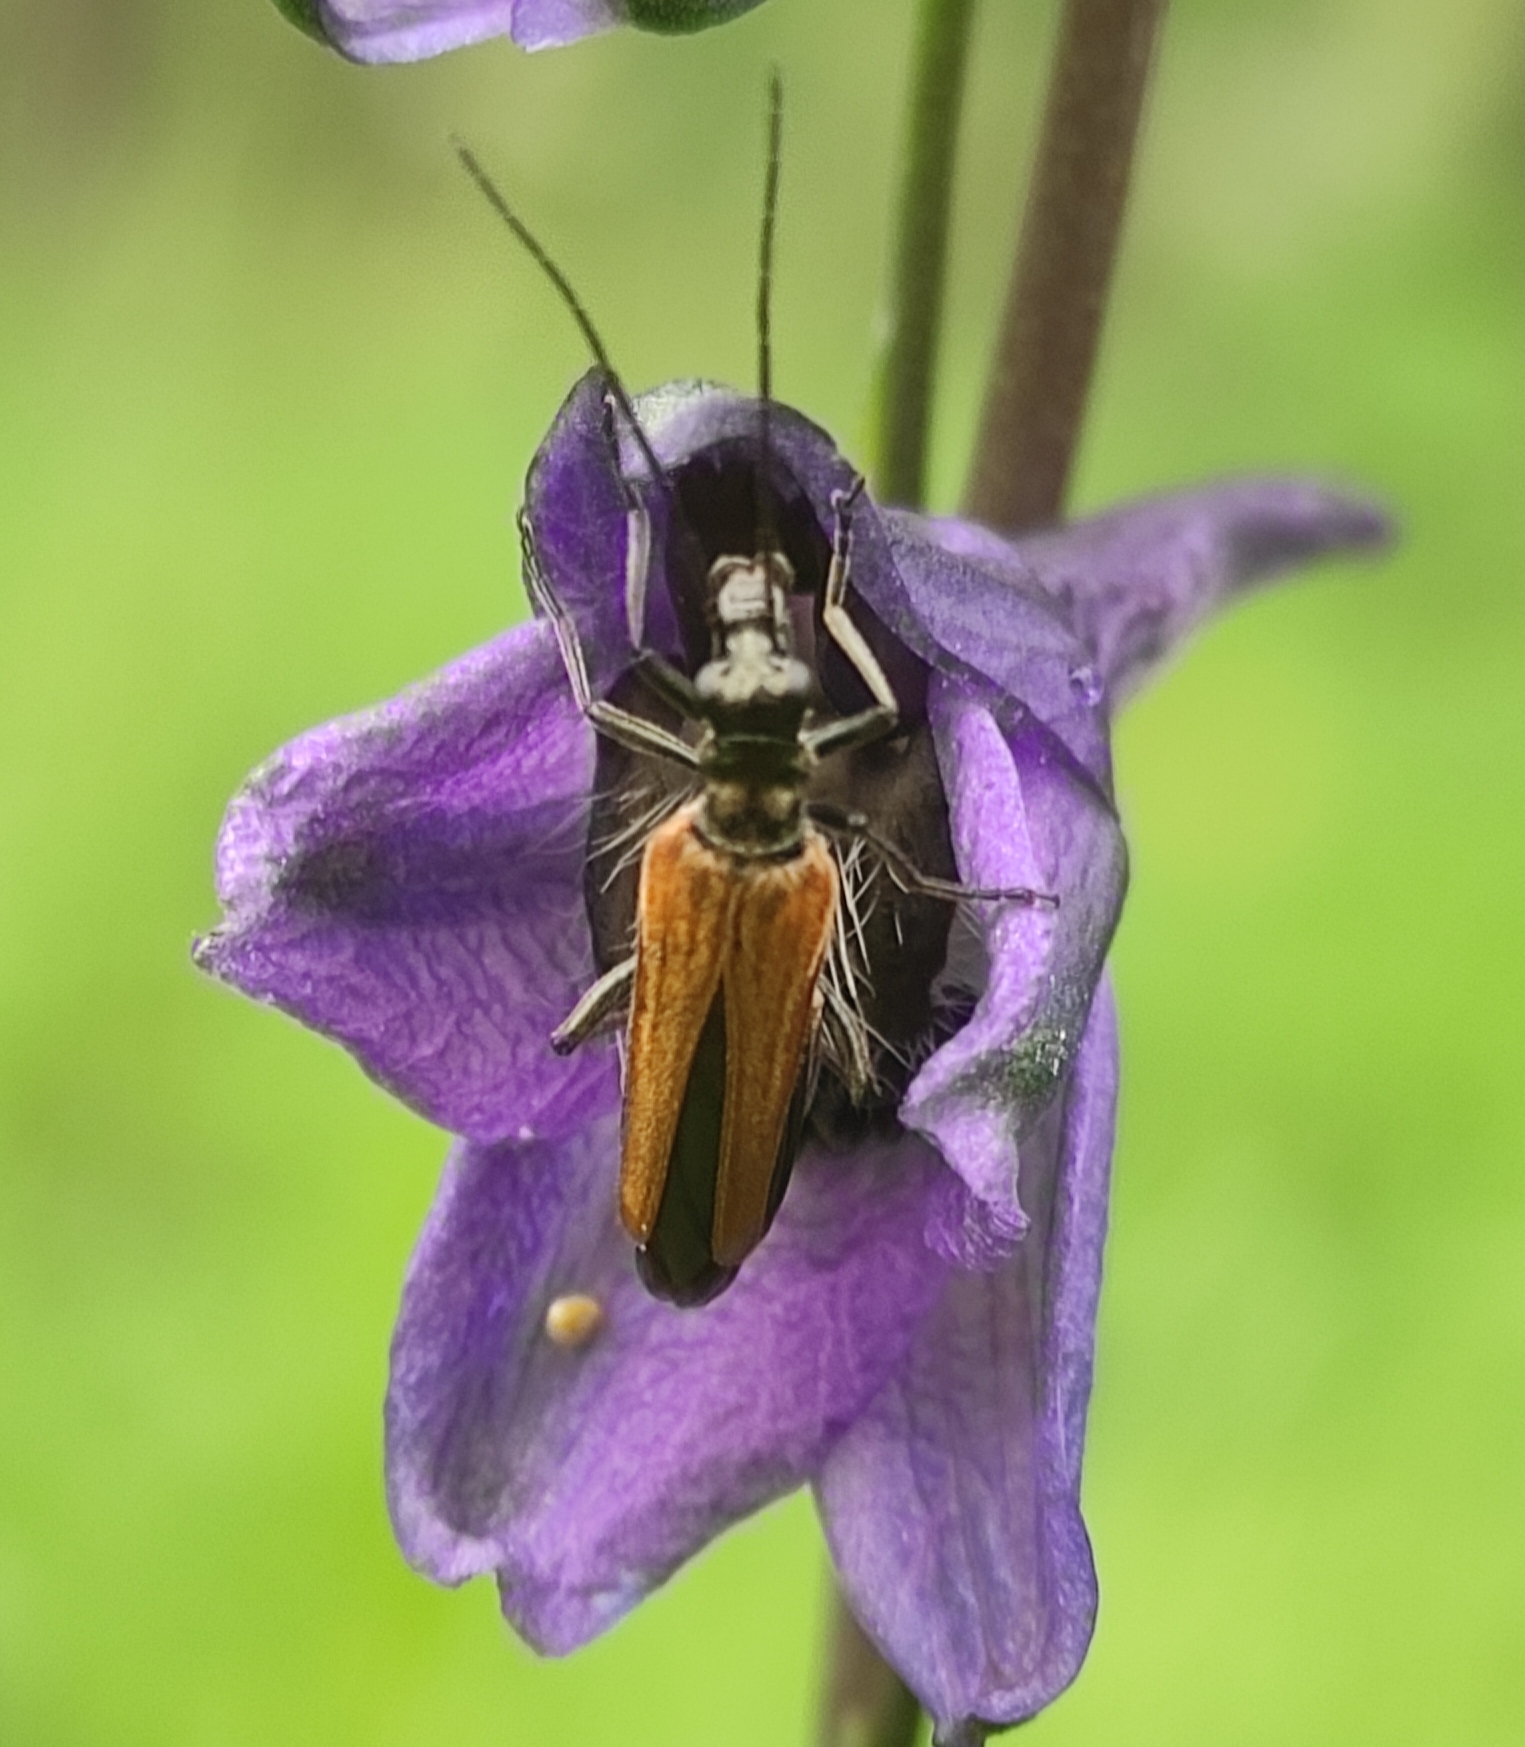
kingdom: Animalia
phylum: Arthropoda
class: Insecta
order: Coleoptera
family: Oedemeridae
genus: Oedemera
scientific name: Oedemera femorata
